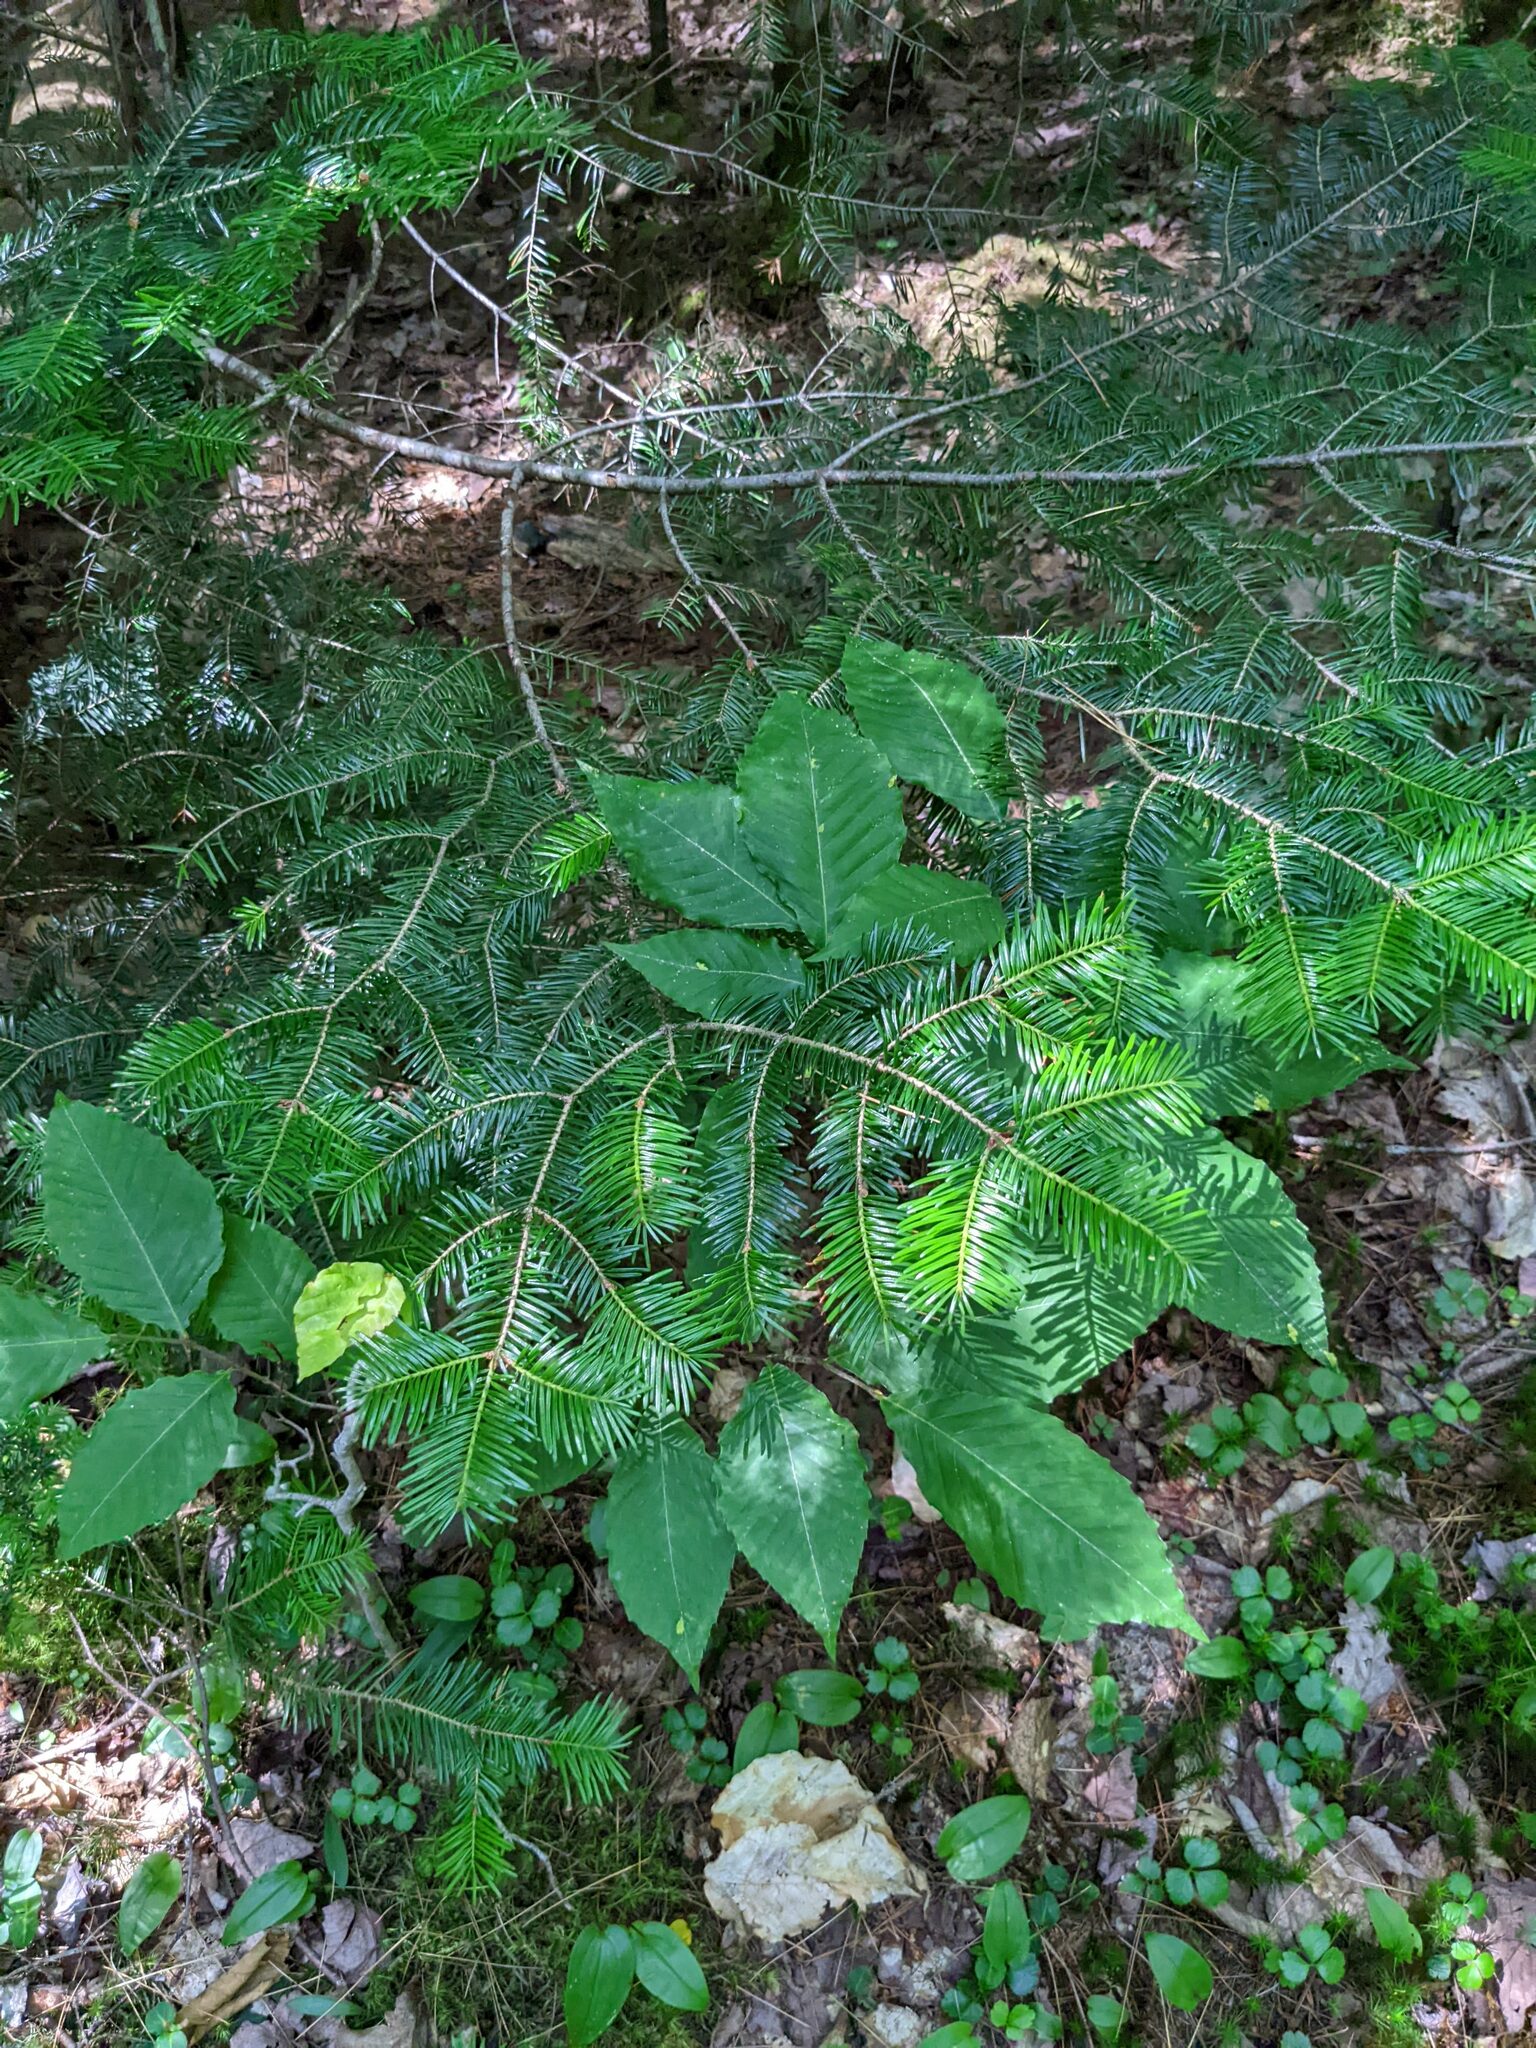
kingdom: Plantae
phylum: Tracheophyta
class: Pinopsida
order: Pinales
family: Pinaceae
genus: Abies
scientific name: Abies balsamea
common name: Balsam fir
